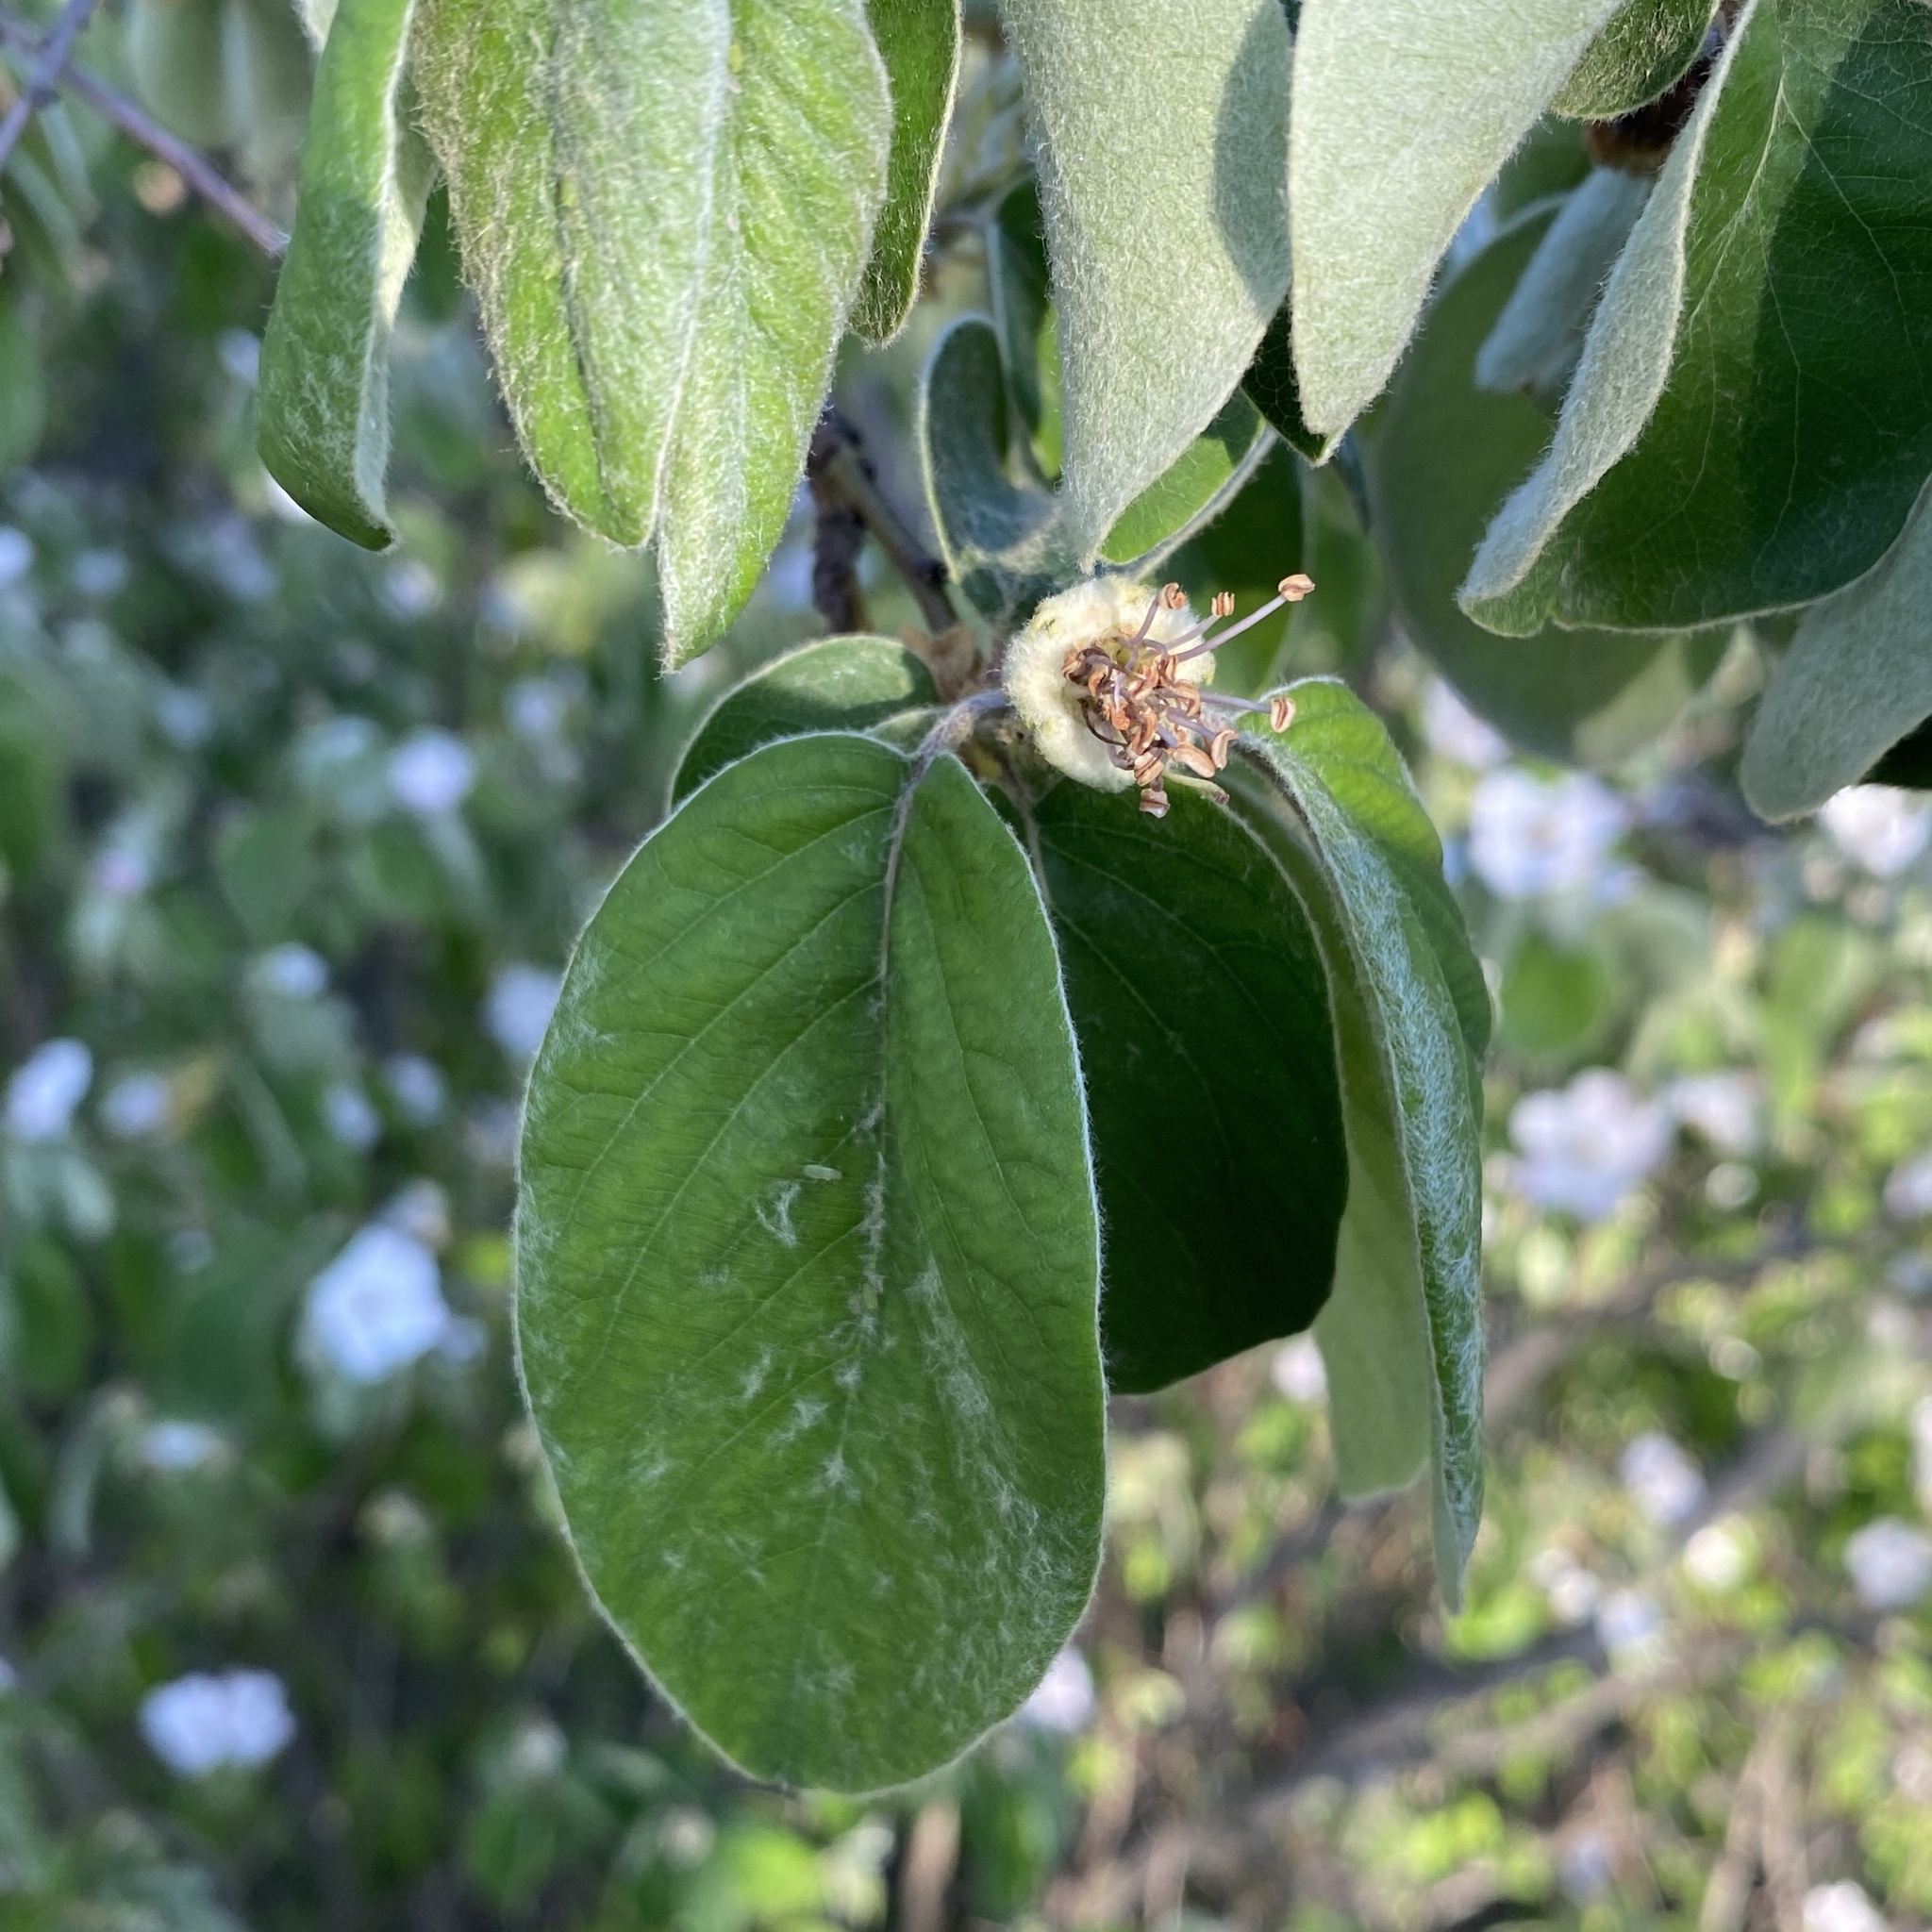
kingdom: Plantae
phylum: Tracheophyta
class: Magnoliopsida
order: Rosales
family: Rosaceae
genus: Cydonia
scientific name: Cydonia oblonga
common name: Quince
